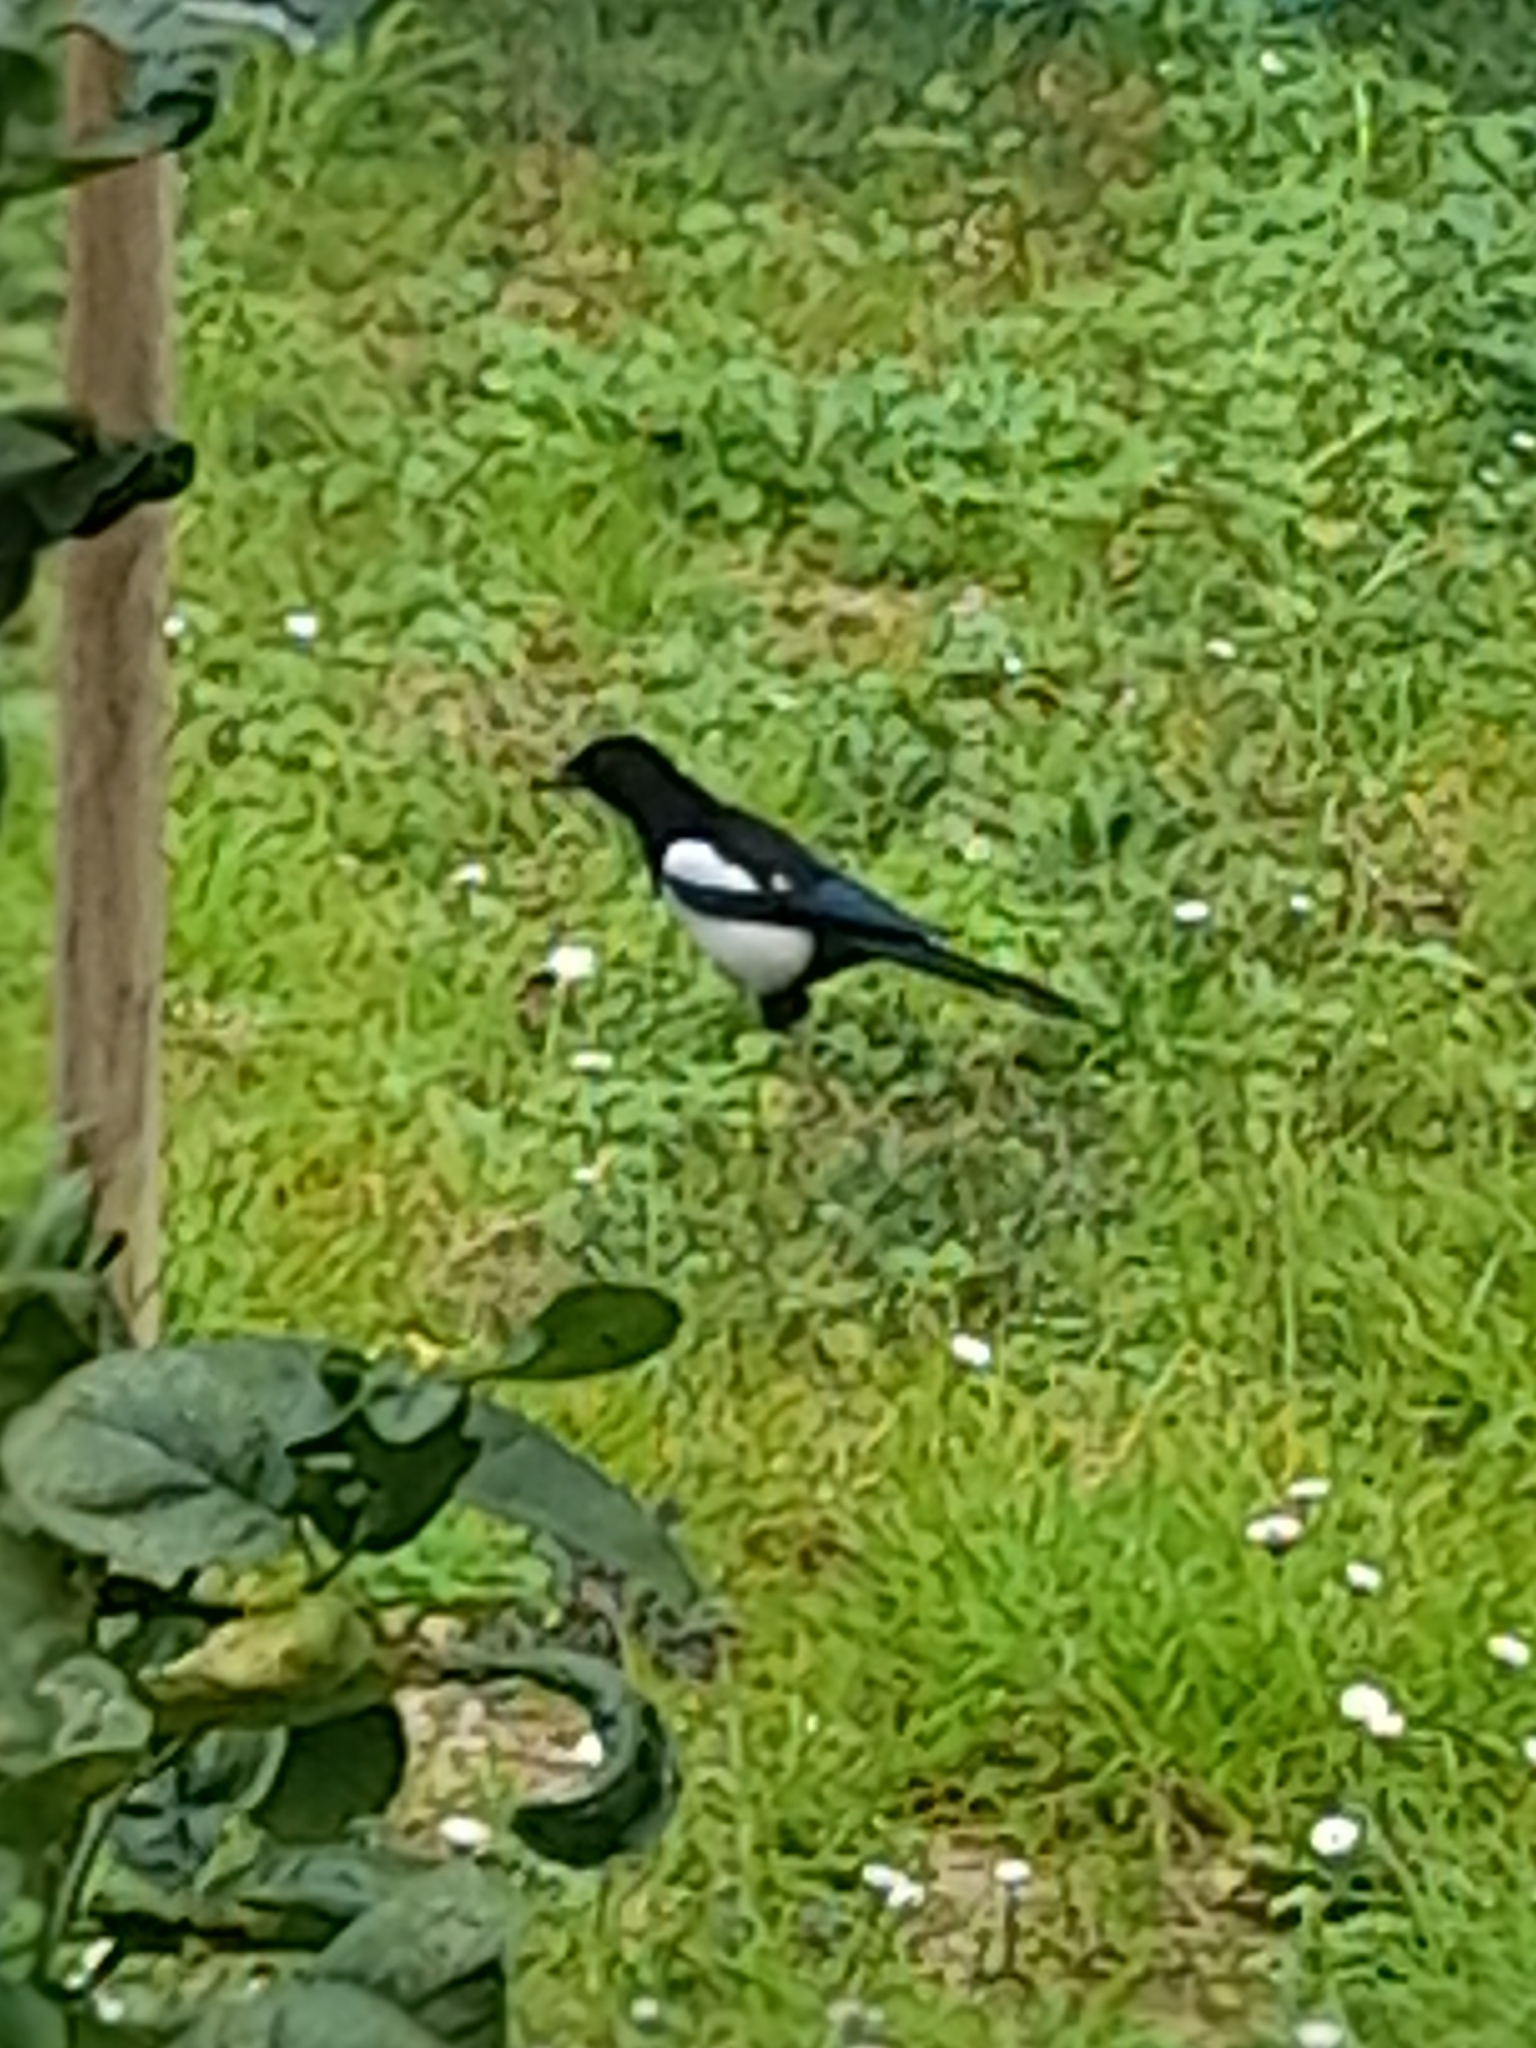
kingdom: Animalia
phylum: Chordata
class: Aves
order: Passeriformes
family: Corvidae
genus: Pica
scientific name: Pica pica
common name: Eurasian magpie
